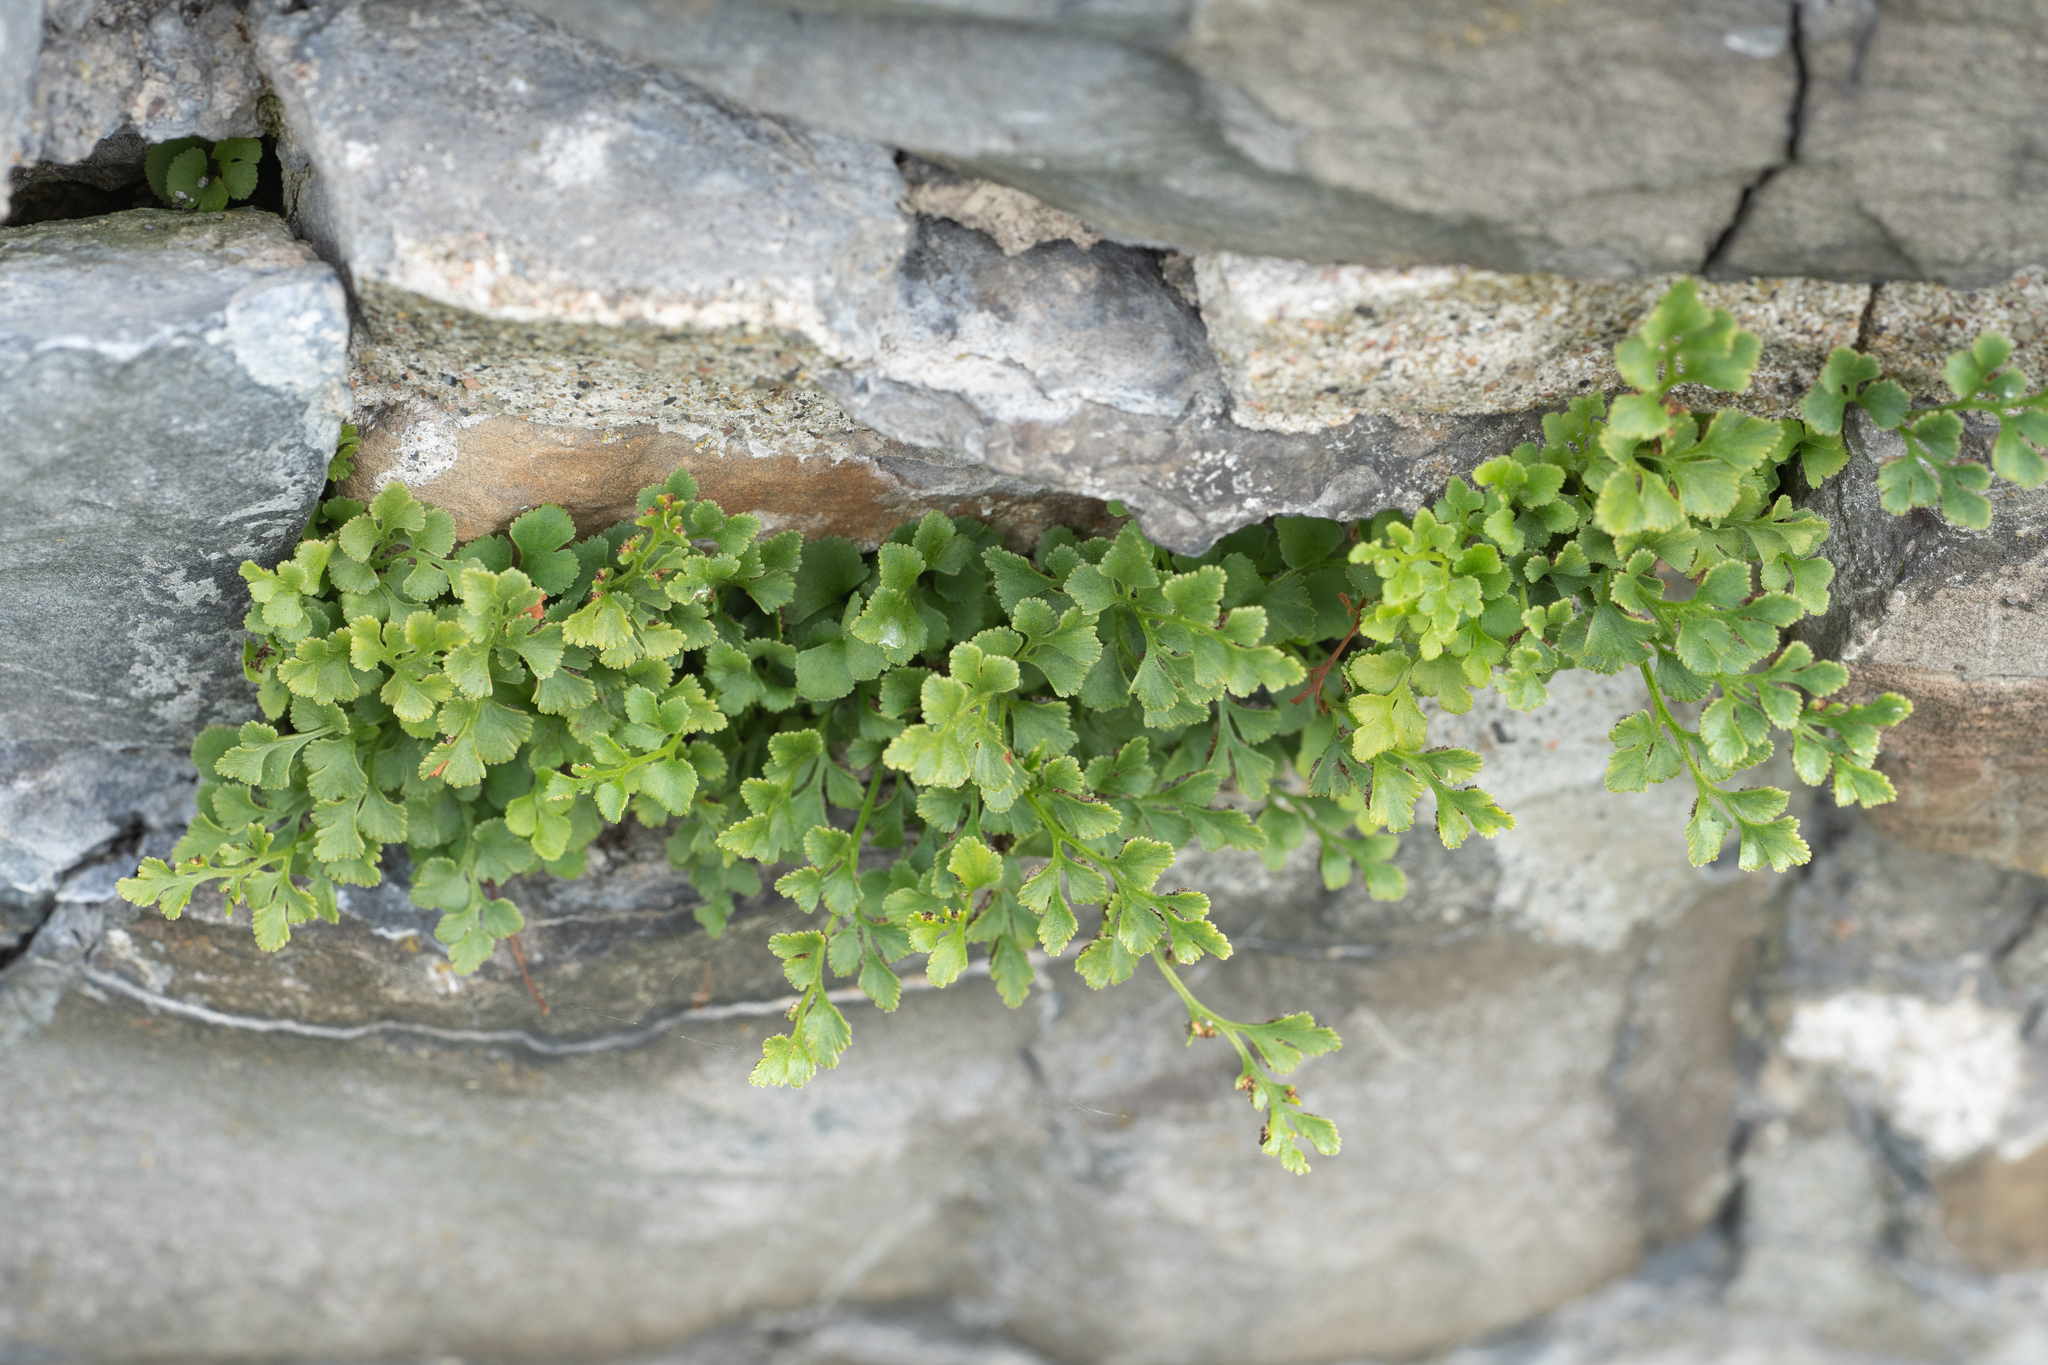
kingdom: Plantae
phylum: Tracheophyta
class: Polypodiopsida
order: Polypodiales
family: Aspleniaceae
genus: Asplenium
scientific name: Asplenium ruta-muraria
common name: Wall-rue
